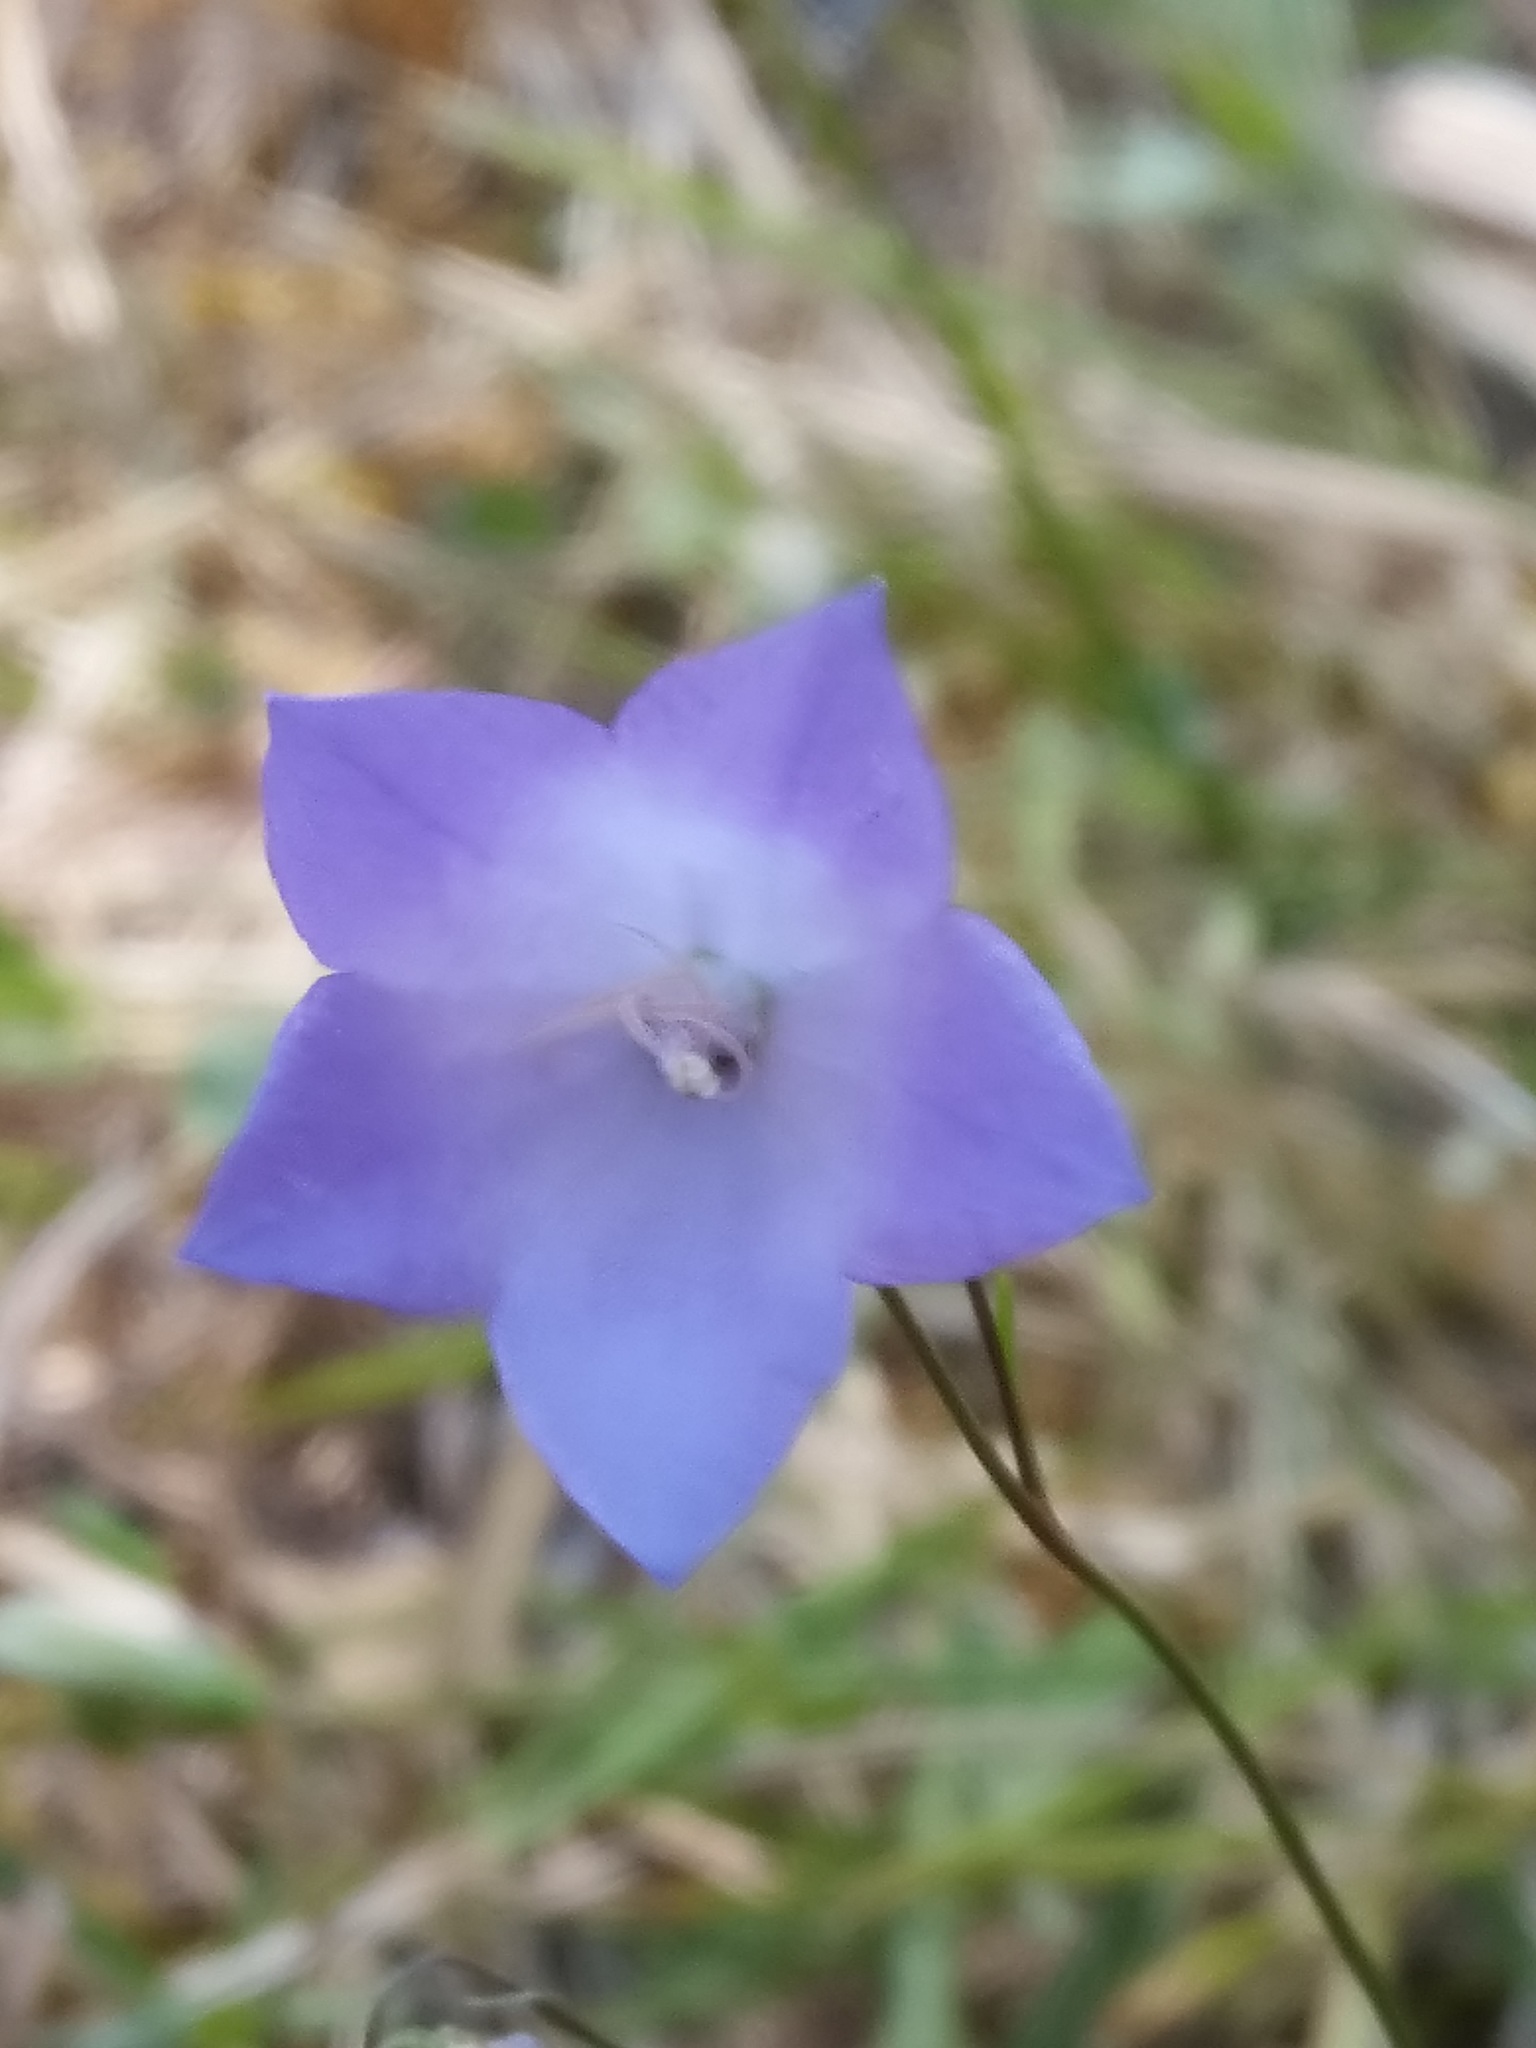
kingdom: Plantae
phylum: Tracheophyta
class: Magnoliopsida
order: Asterales
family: Campanulaceae
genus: Campanula
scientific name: Campanula rotundifolia
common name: Harebell
